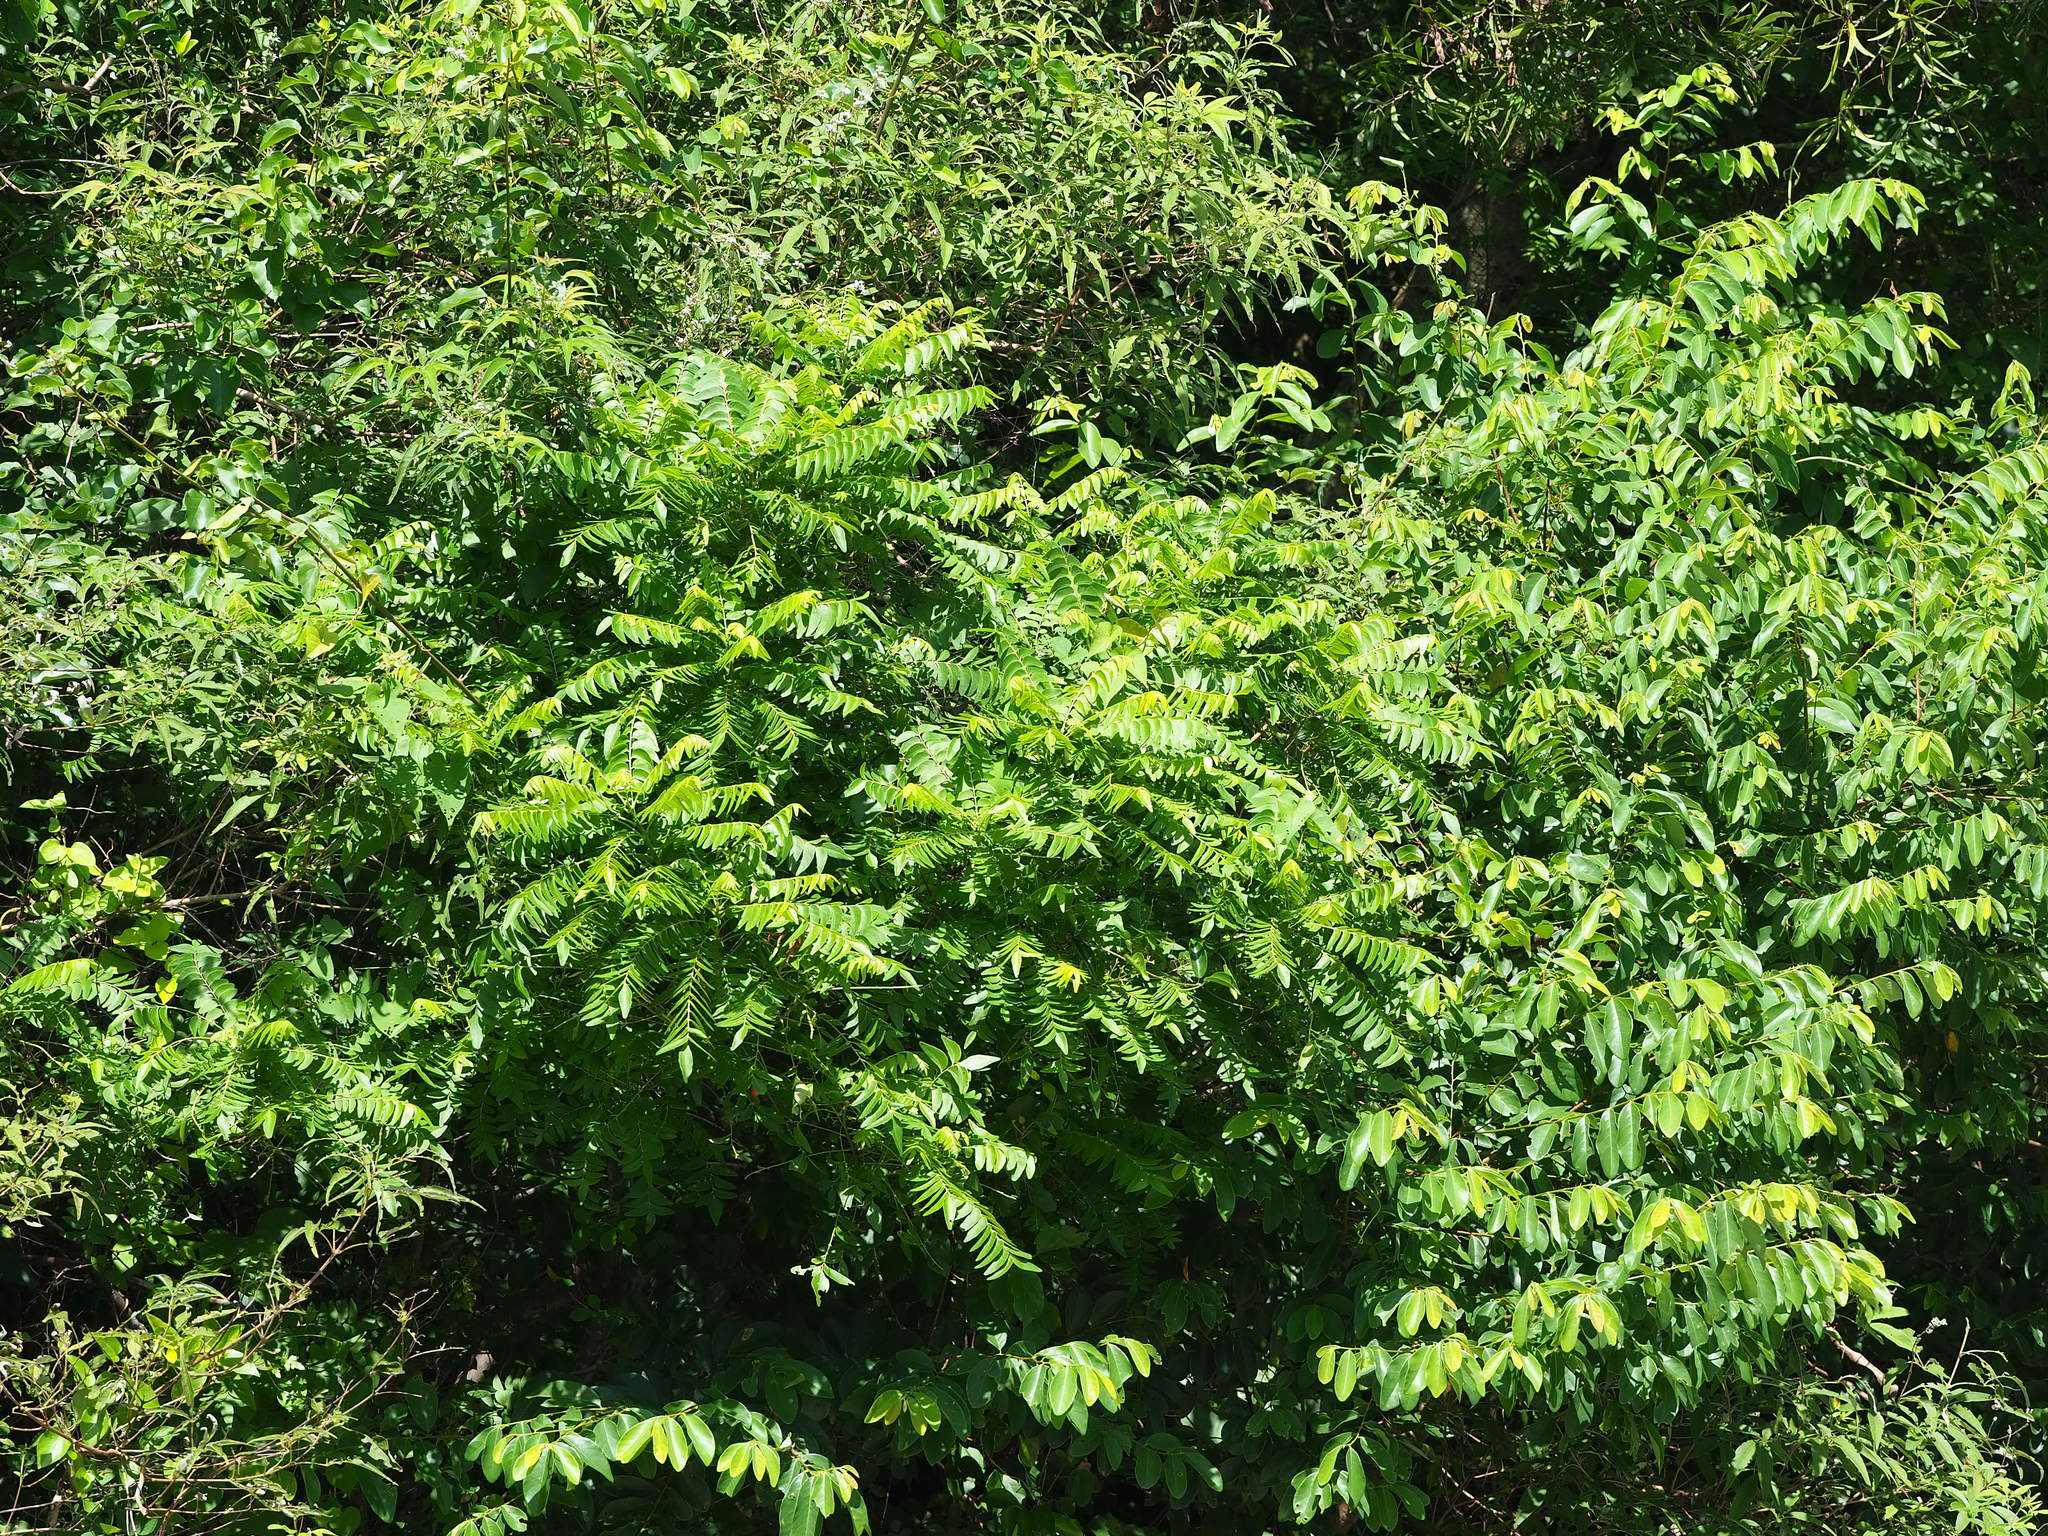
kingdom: Plantae
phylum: Tracheophyta
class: Magnoliopsida
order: Sapindales
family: Rutaceae
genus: Clausena
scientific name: Clausena excavata
